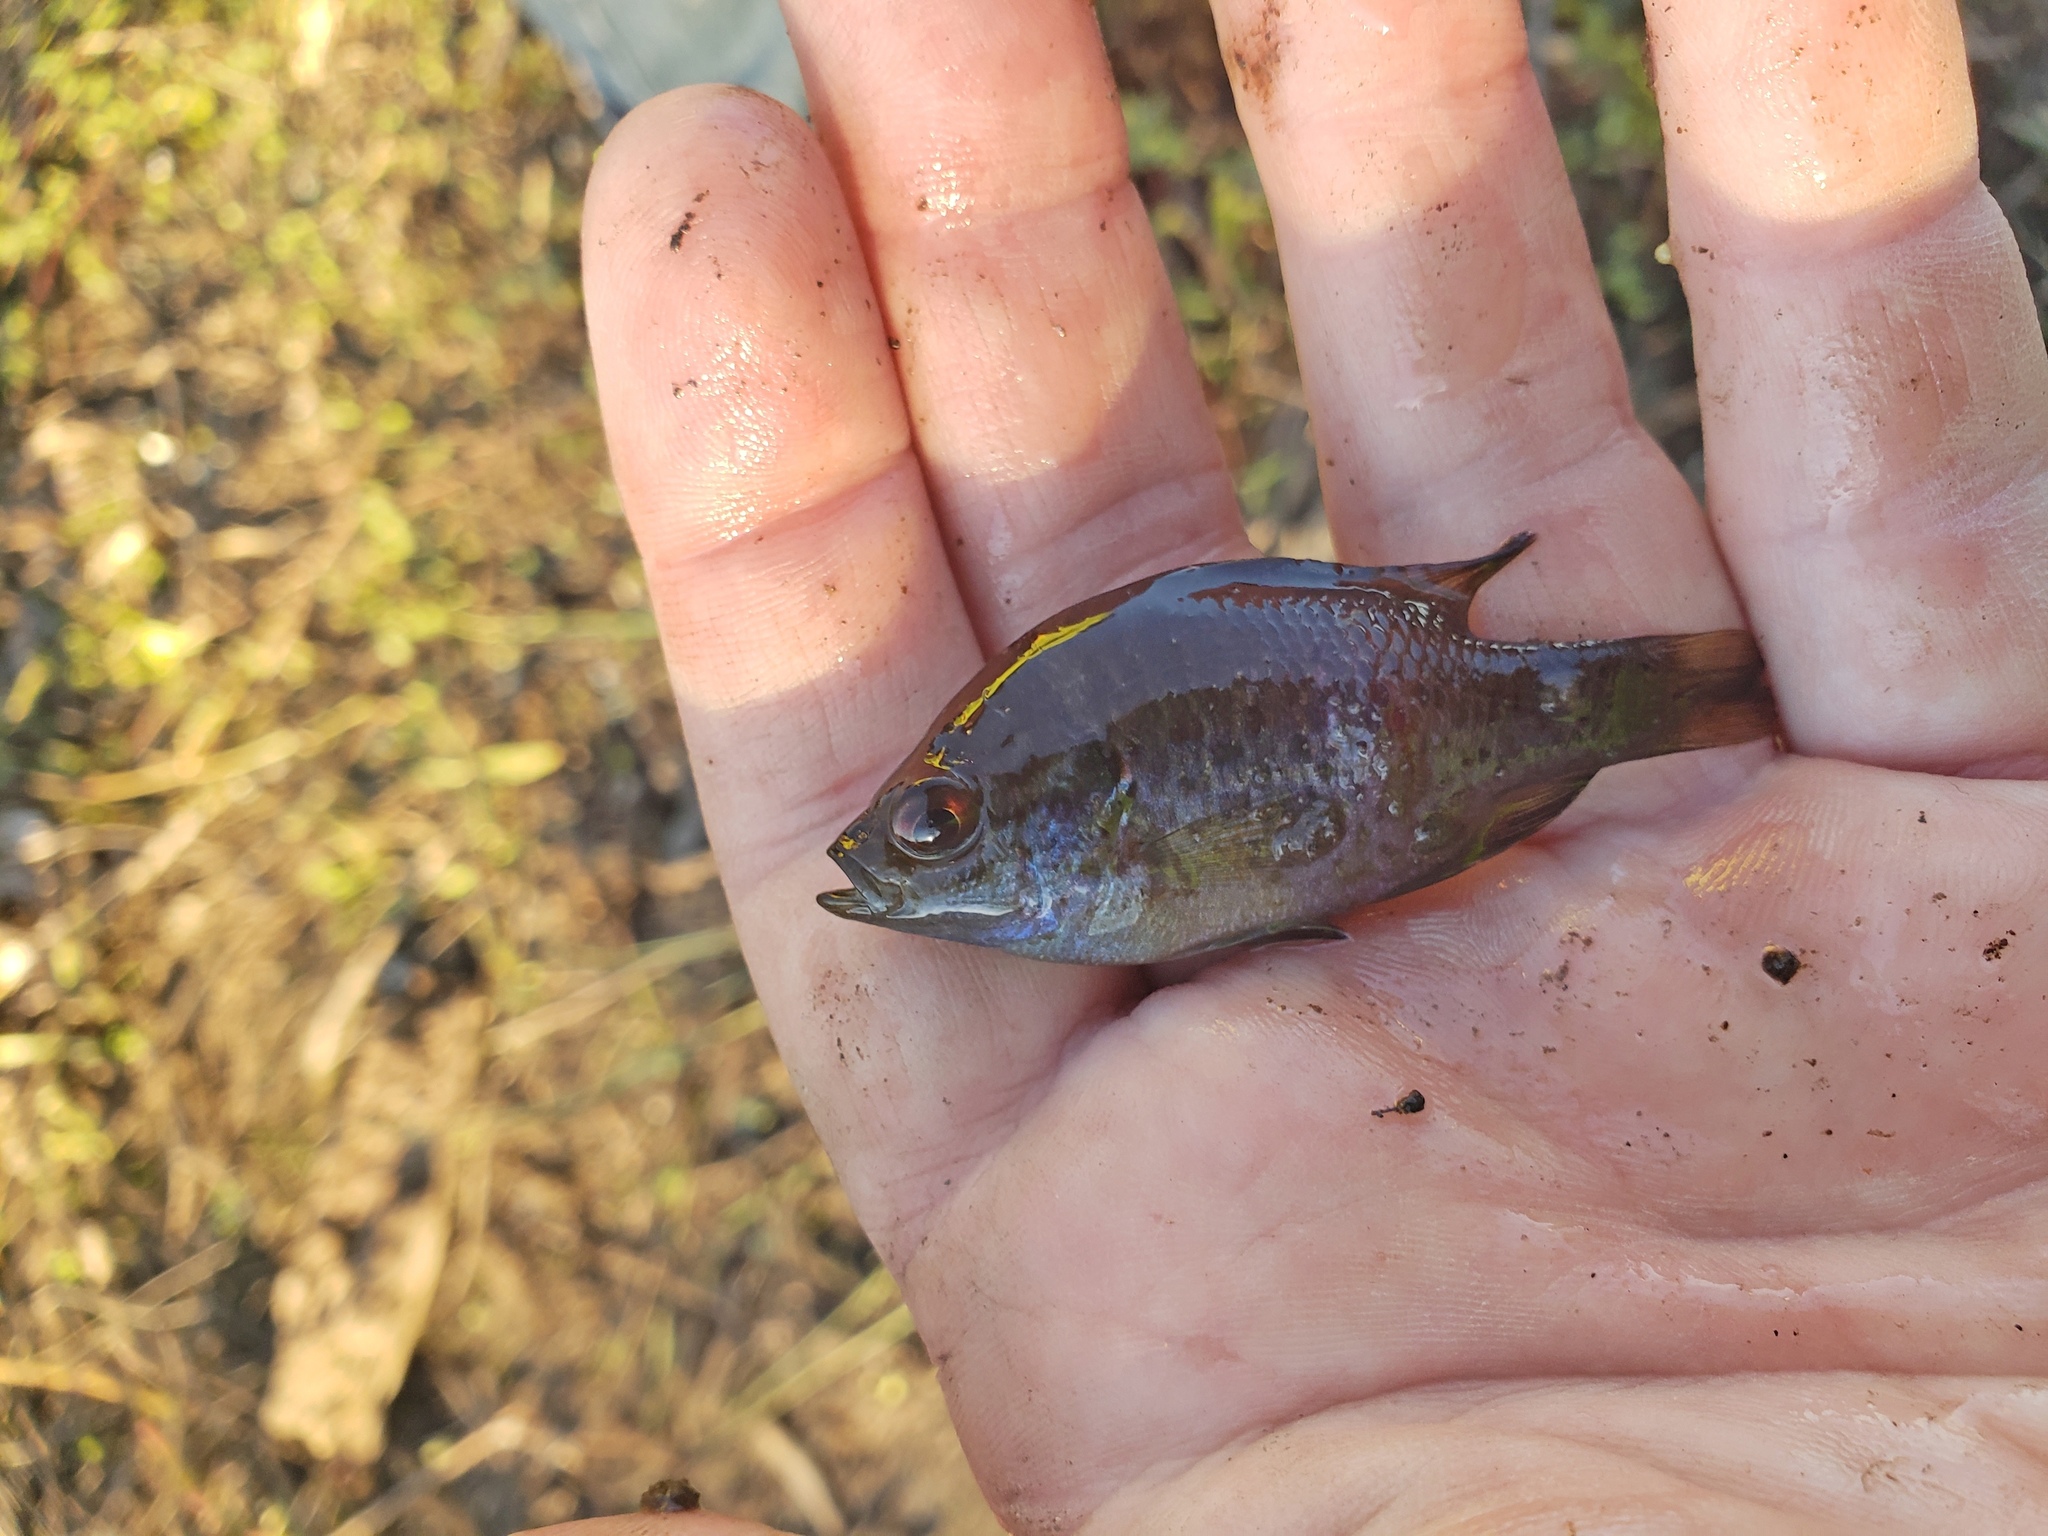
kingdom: Animalia
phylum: Chordata
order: Perciformes
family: Centrarchidae
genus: Lepomis
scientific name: Lepomis miniatus
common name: Redspotted sunfish
